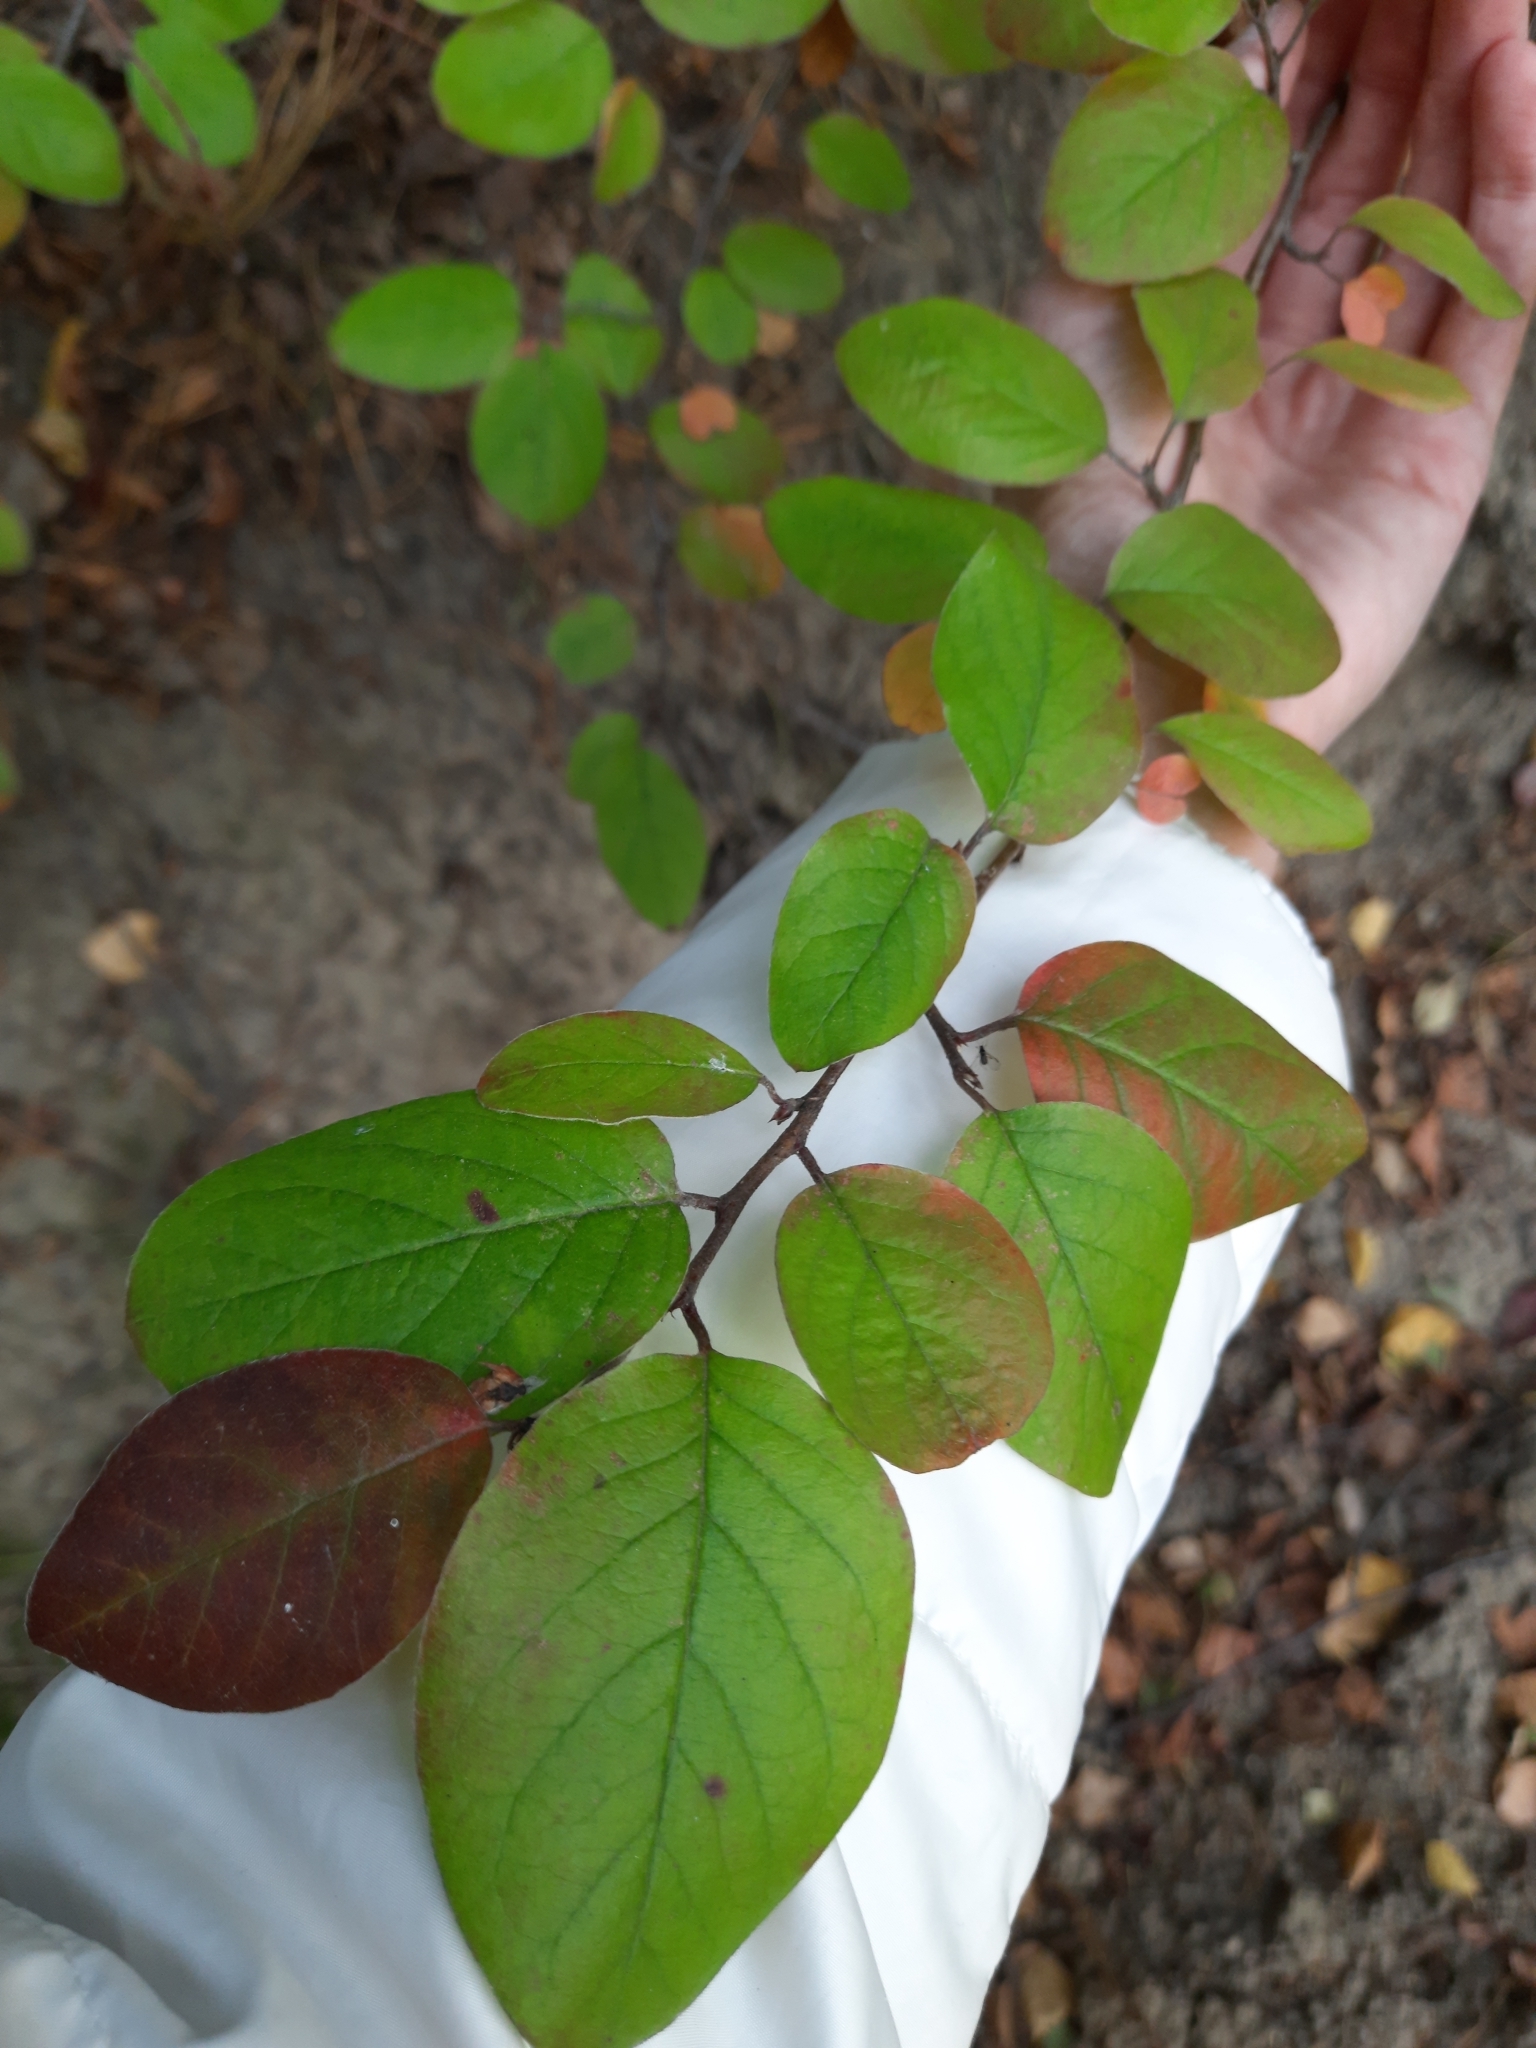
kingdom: Plantae
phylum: Tracheophyta
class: Magnoliopsida
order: Rosales
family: Rosaceae
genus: Cotoneaster
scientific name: Cotoneaster melanocarpus
